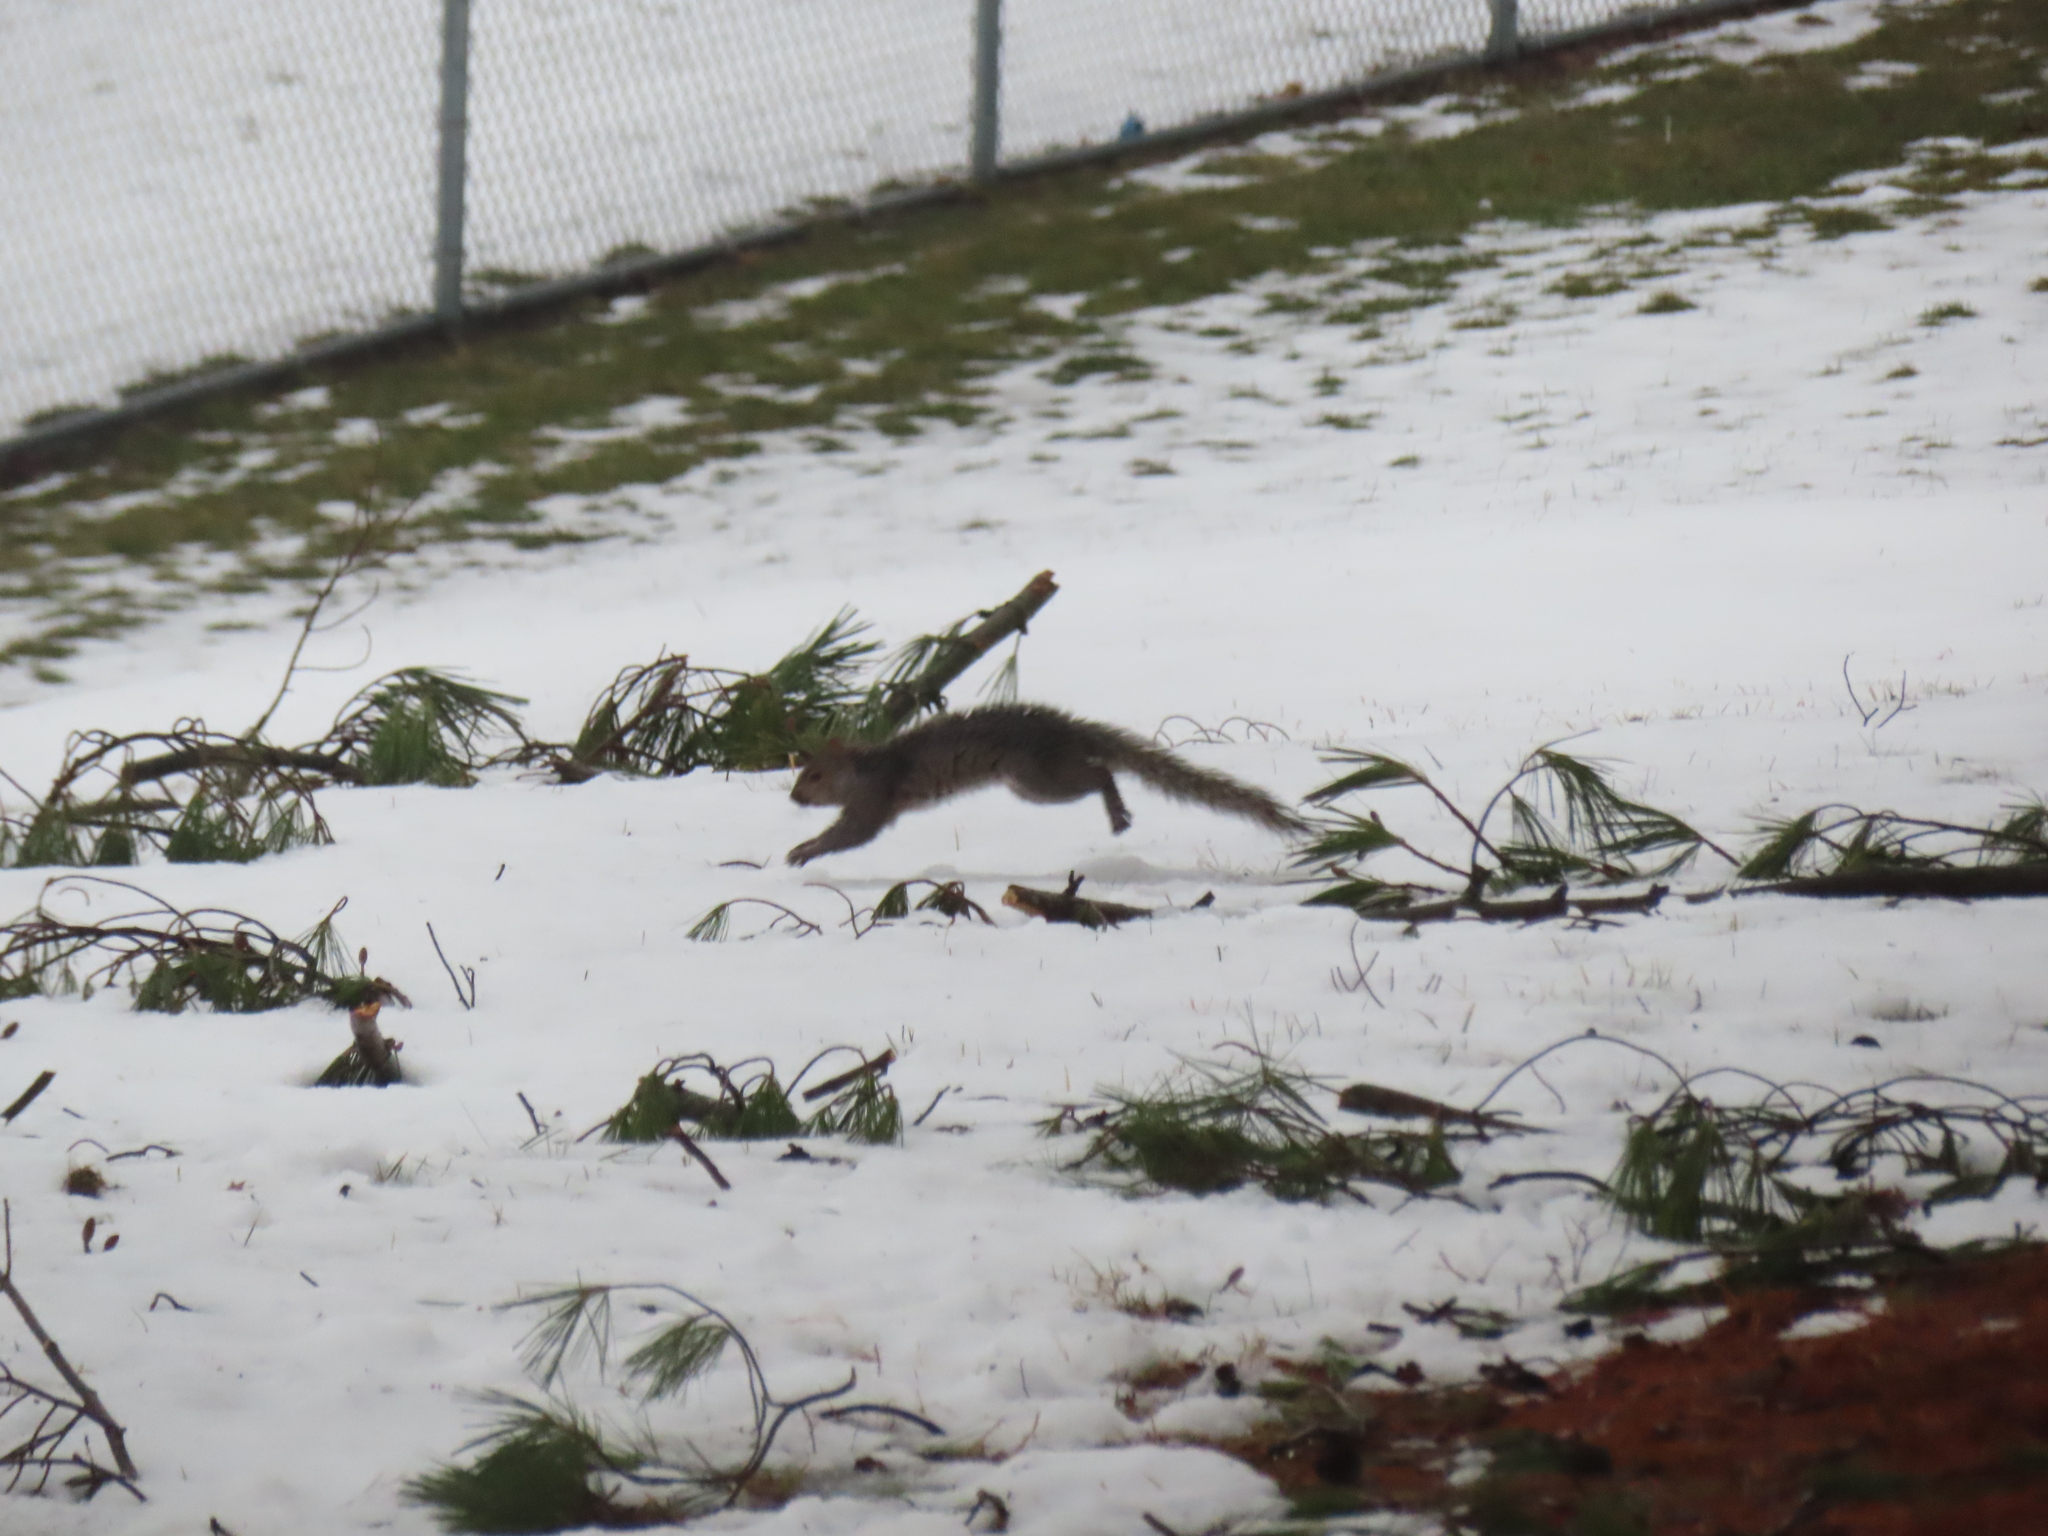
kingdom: Animalia
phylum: Chordata
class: Mammalia
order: Rodentia
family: Sciuridae
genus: Sciurus
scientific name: Sciurus carolinensis
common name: Eastern gray squirrel
